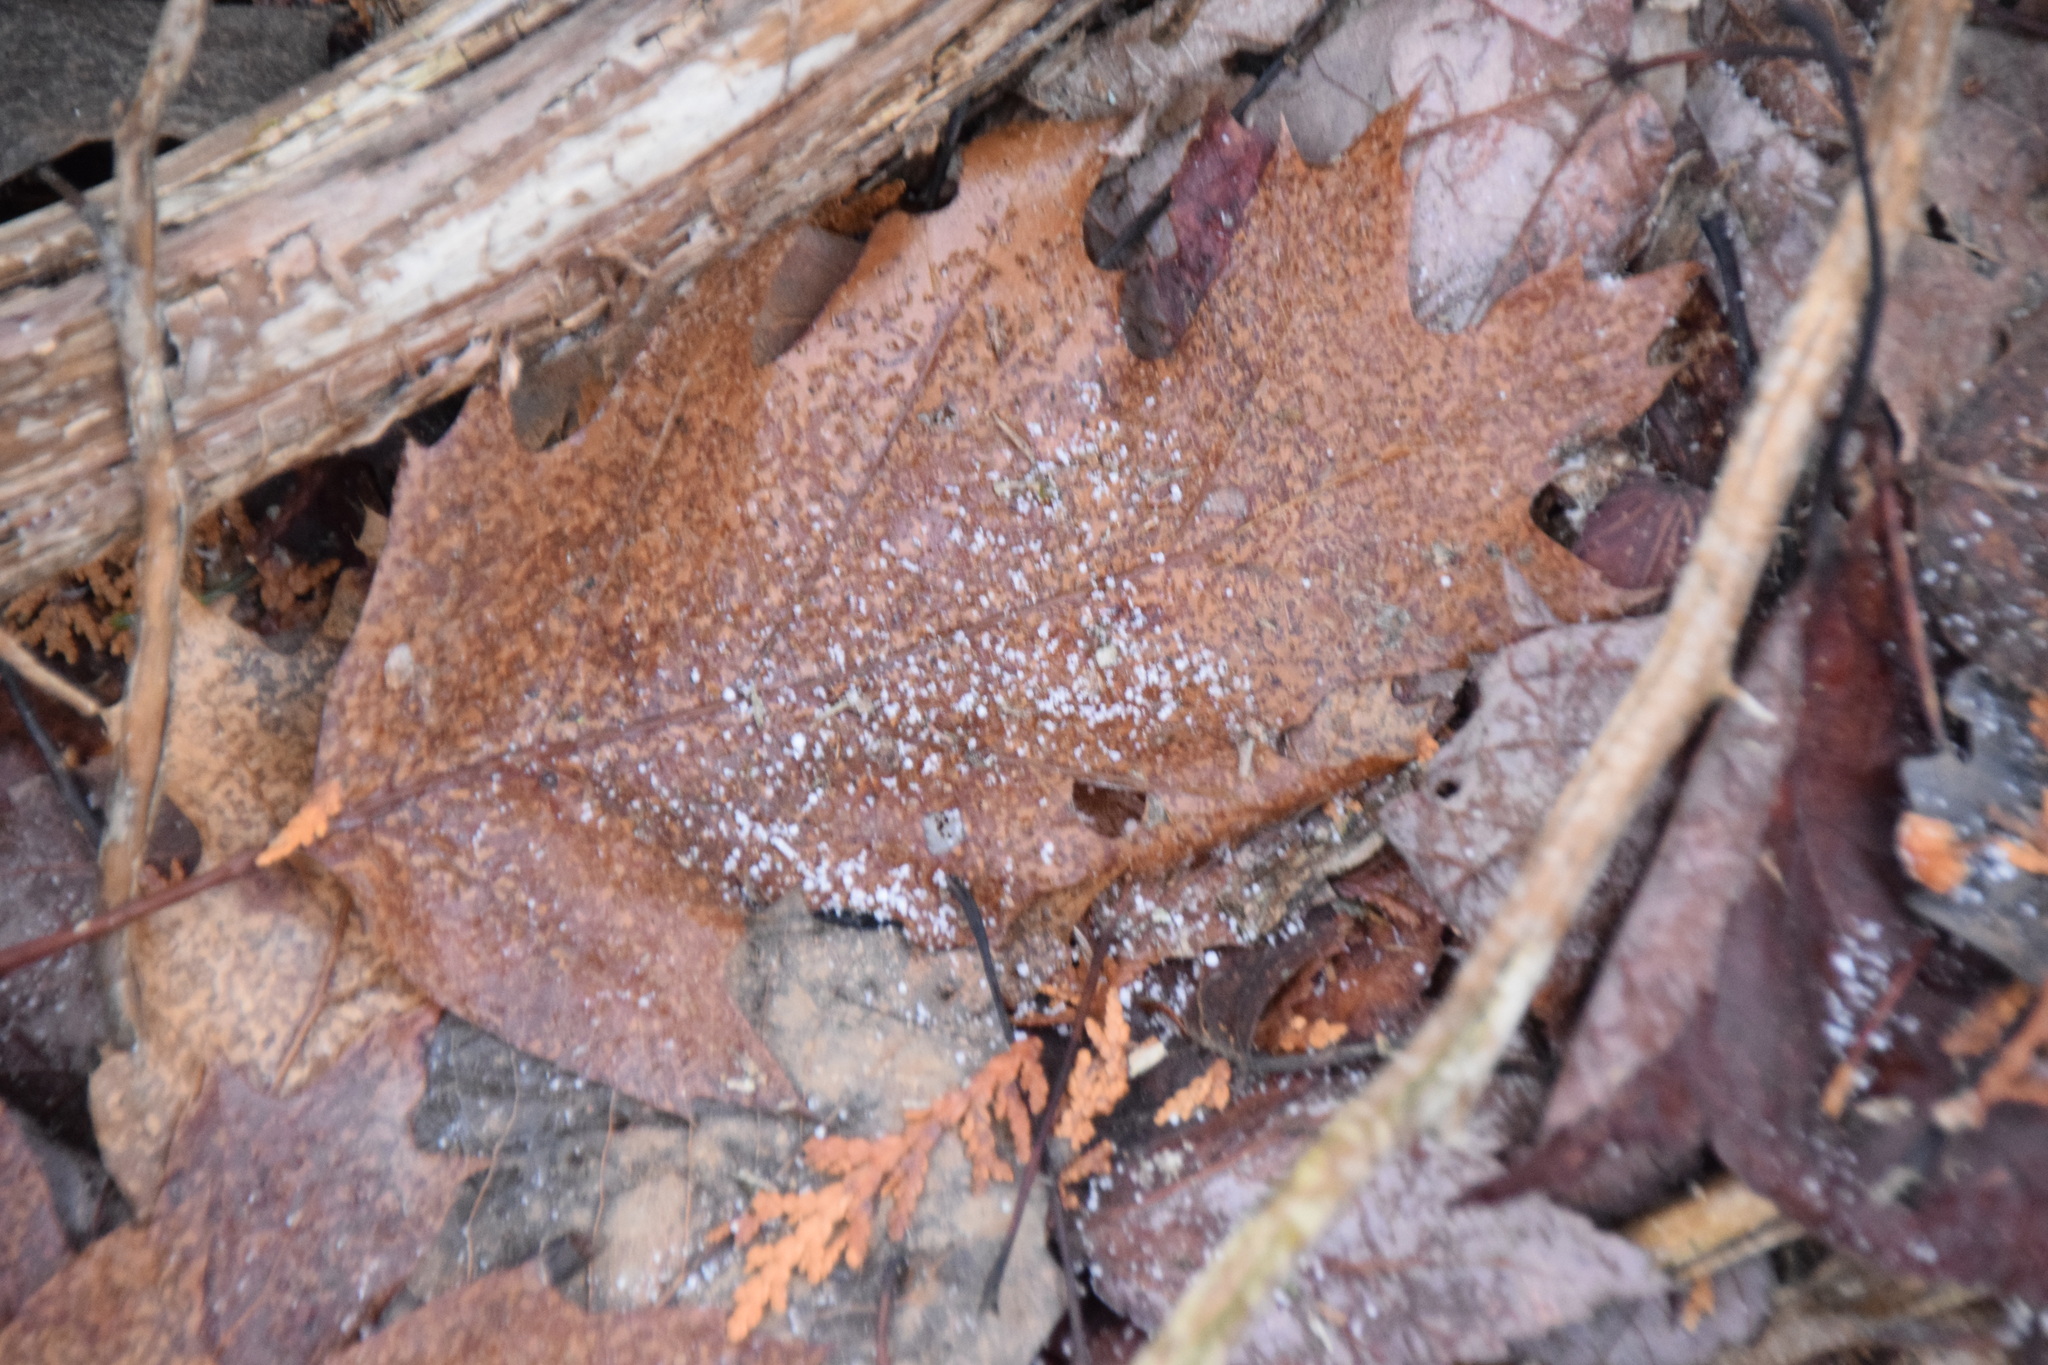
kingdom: Plantae
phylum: Tracheophyta
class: Magnoliopsida
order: Fagales
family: Fagaceae
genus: Quercus
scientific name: Quercus rubra
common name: Red oak
